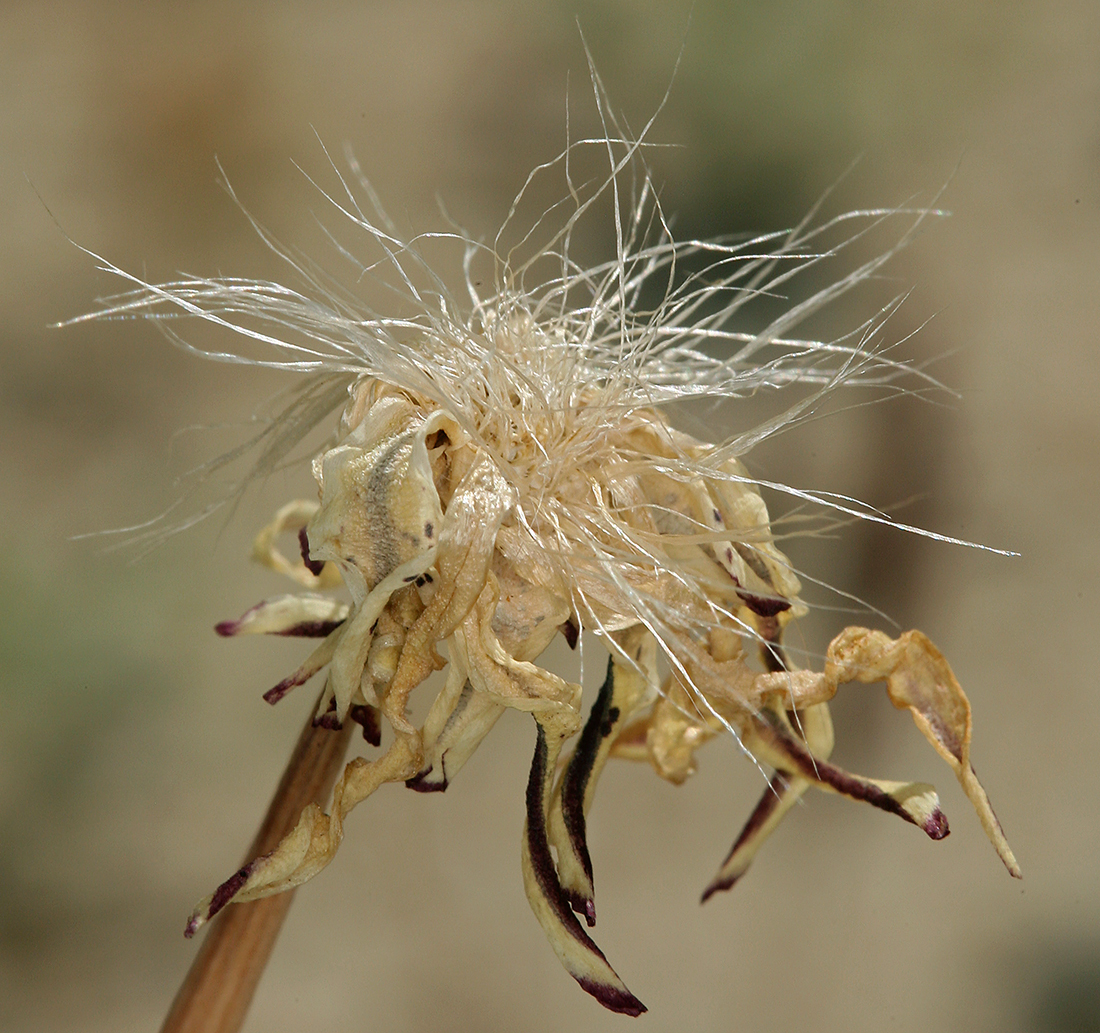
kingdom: Plantae
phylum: Tracheophyta
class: Magnoliopsida
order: Asterales
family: Asteraceae
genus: Anisocoma
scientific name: Anisocoma acaulis
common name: Scalebud
